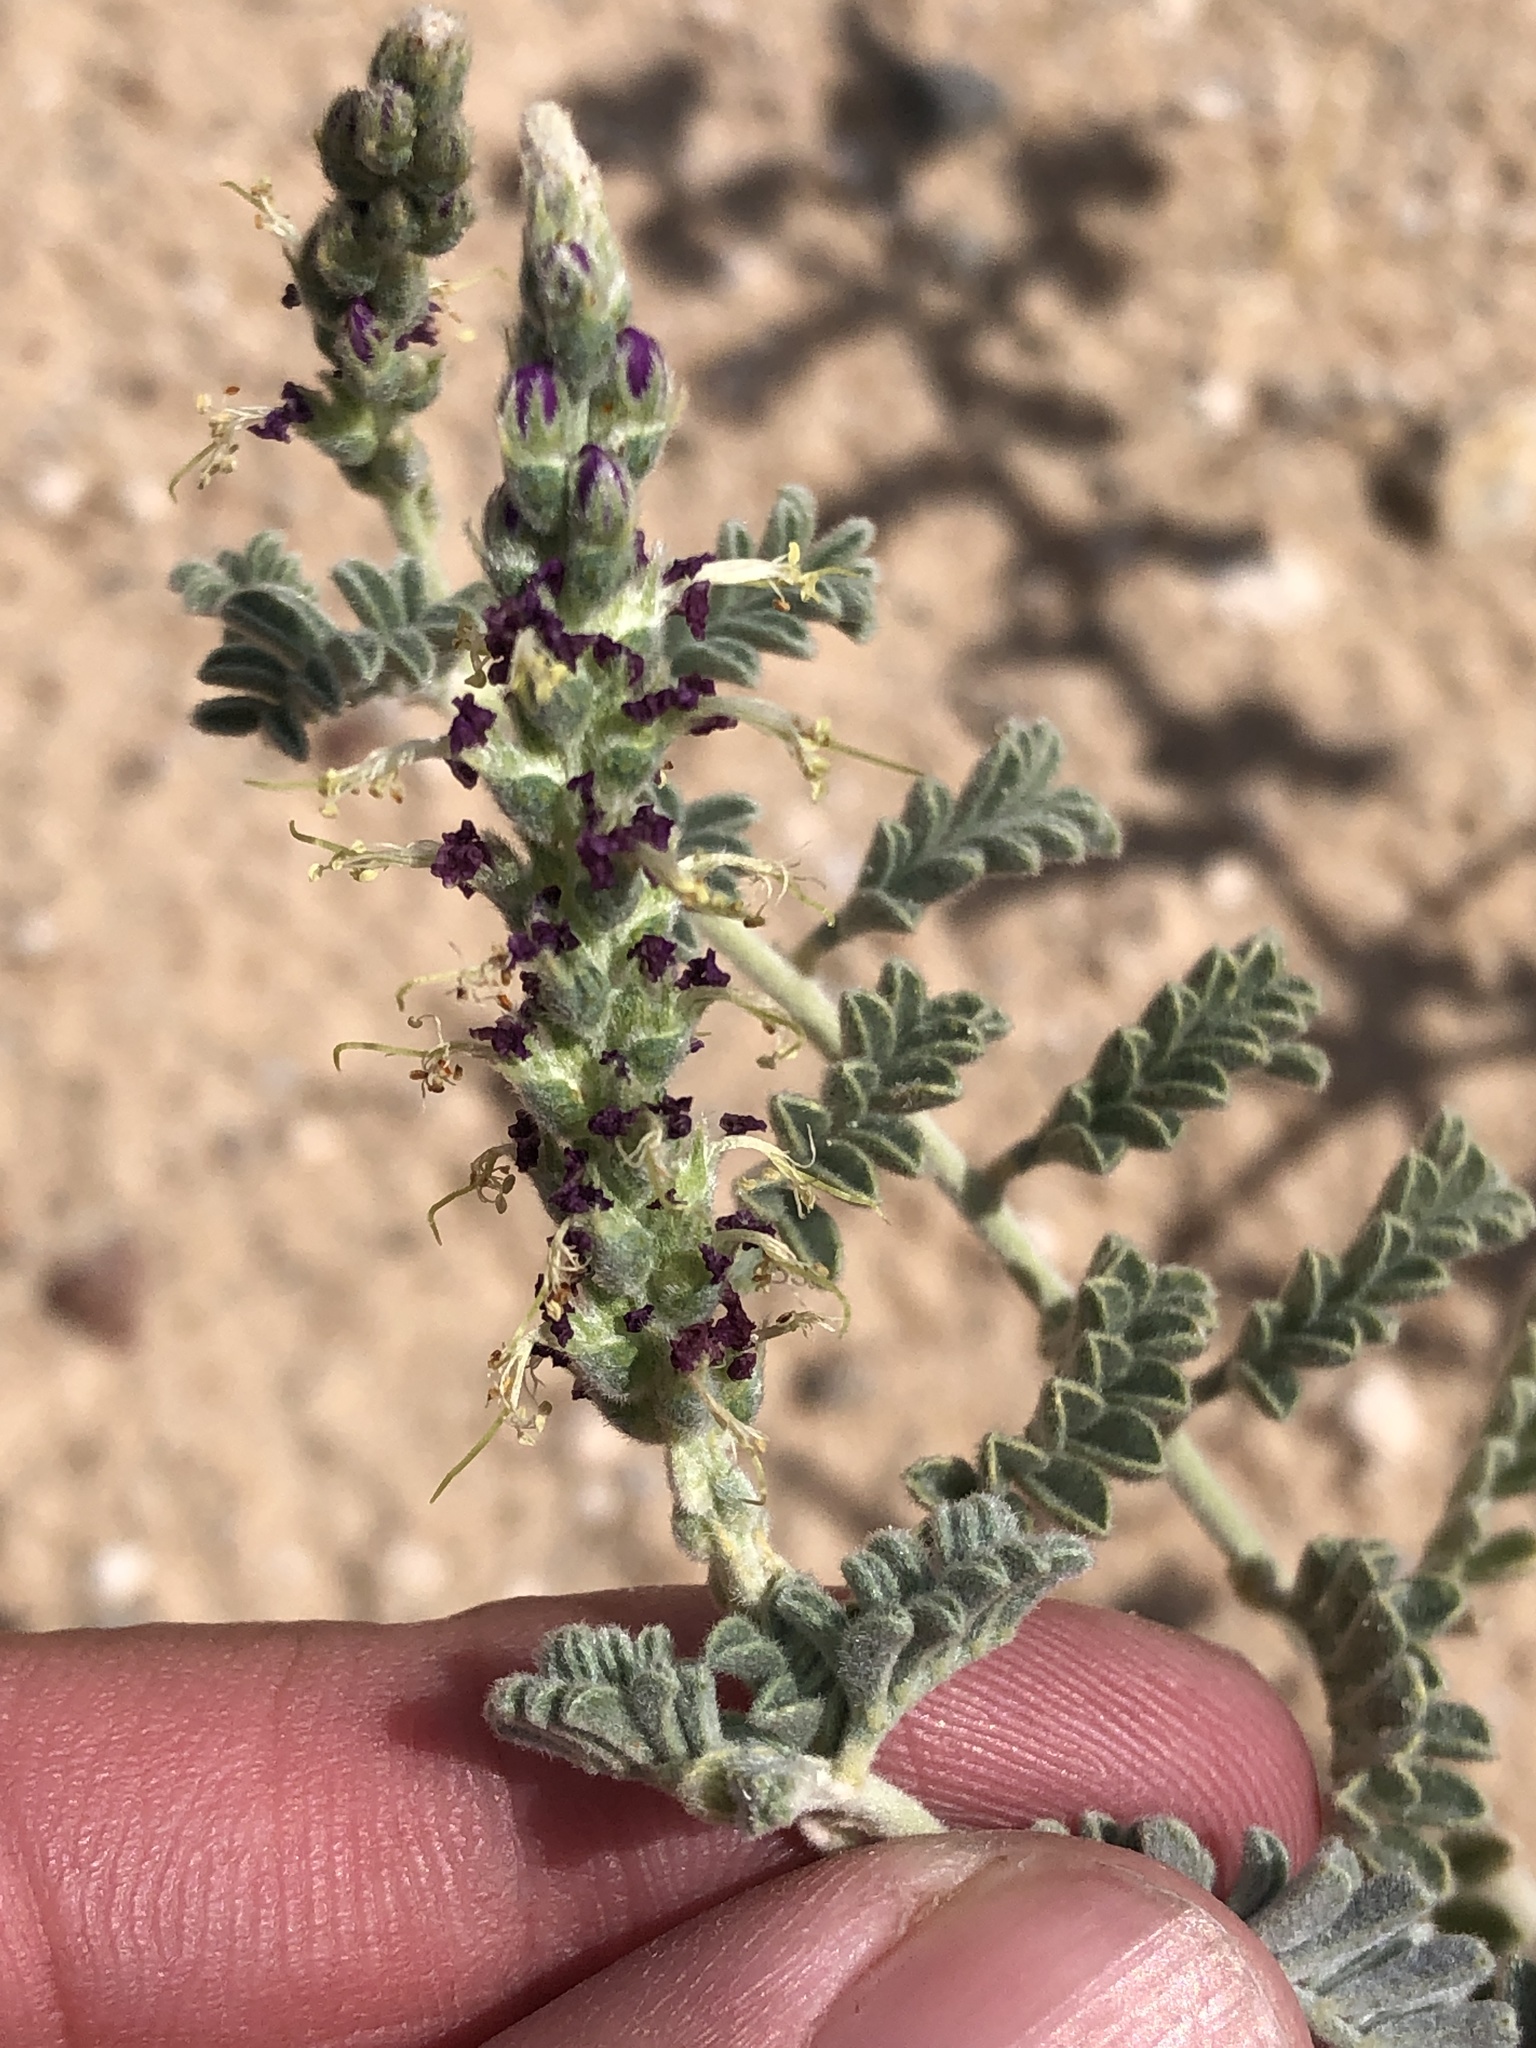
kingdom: Plantae
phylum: Tracheophyta
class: Magnoliopsida
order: Fabales
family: Fabaceae
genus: Dalea
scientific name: Dalea lanata
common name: Woolly dalea
